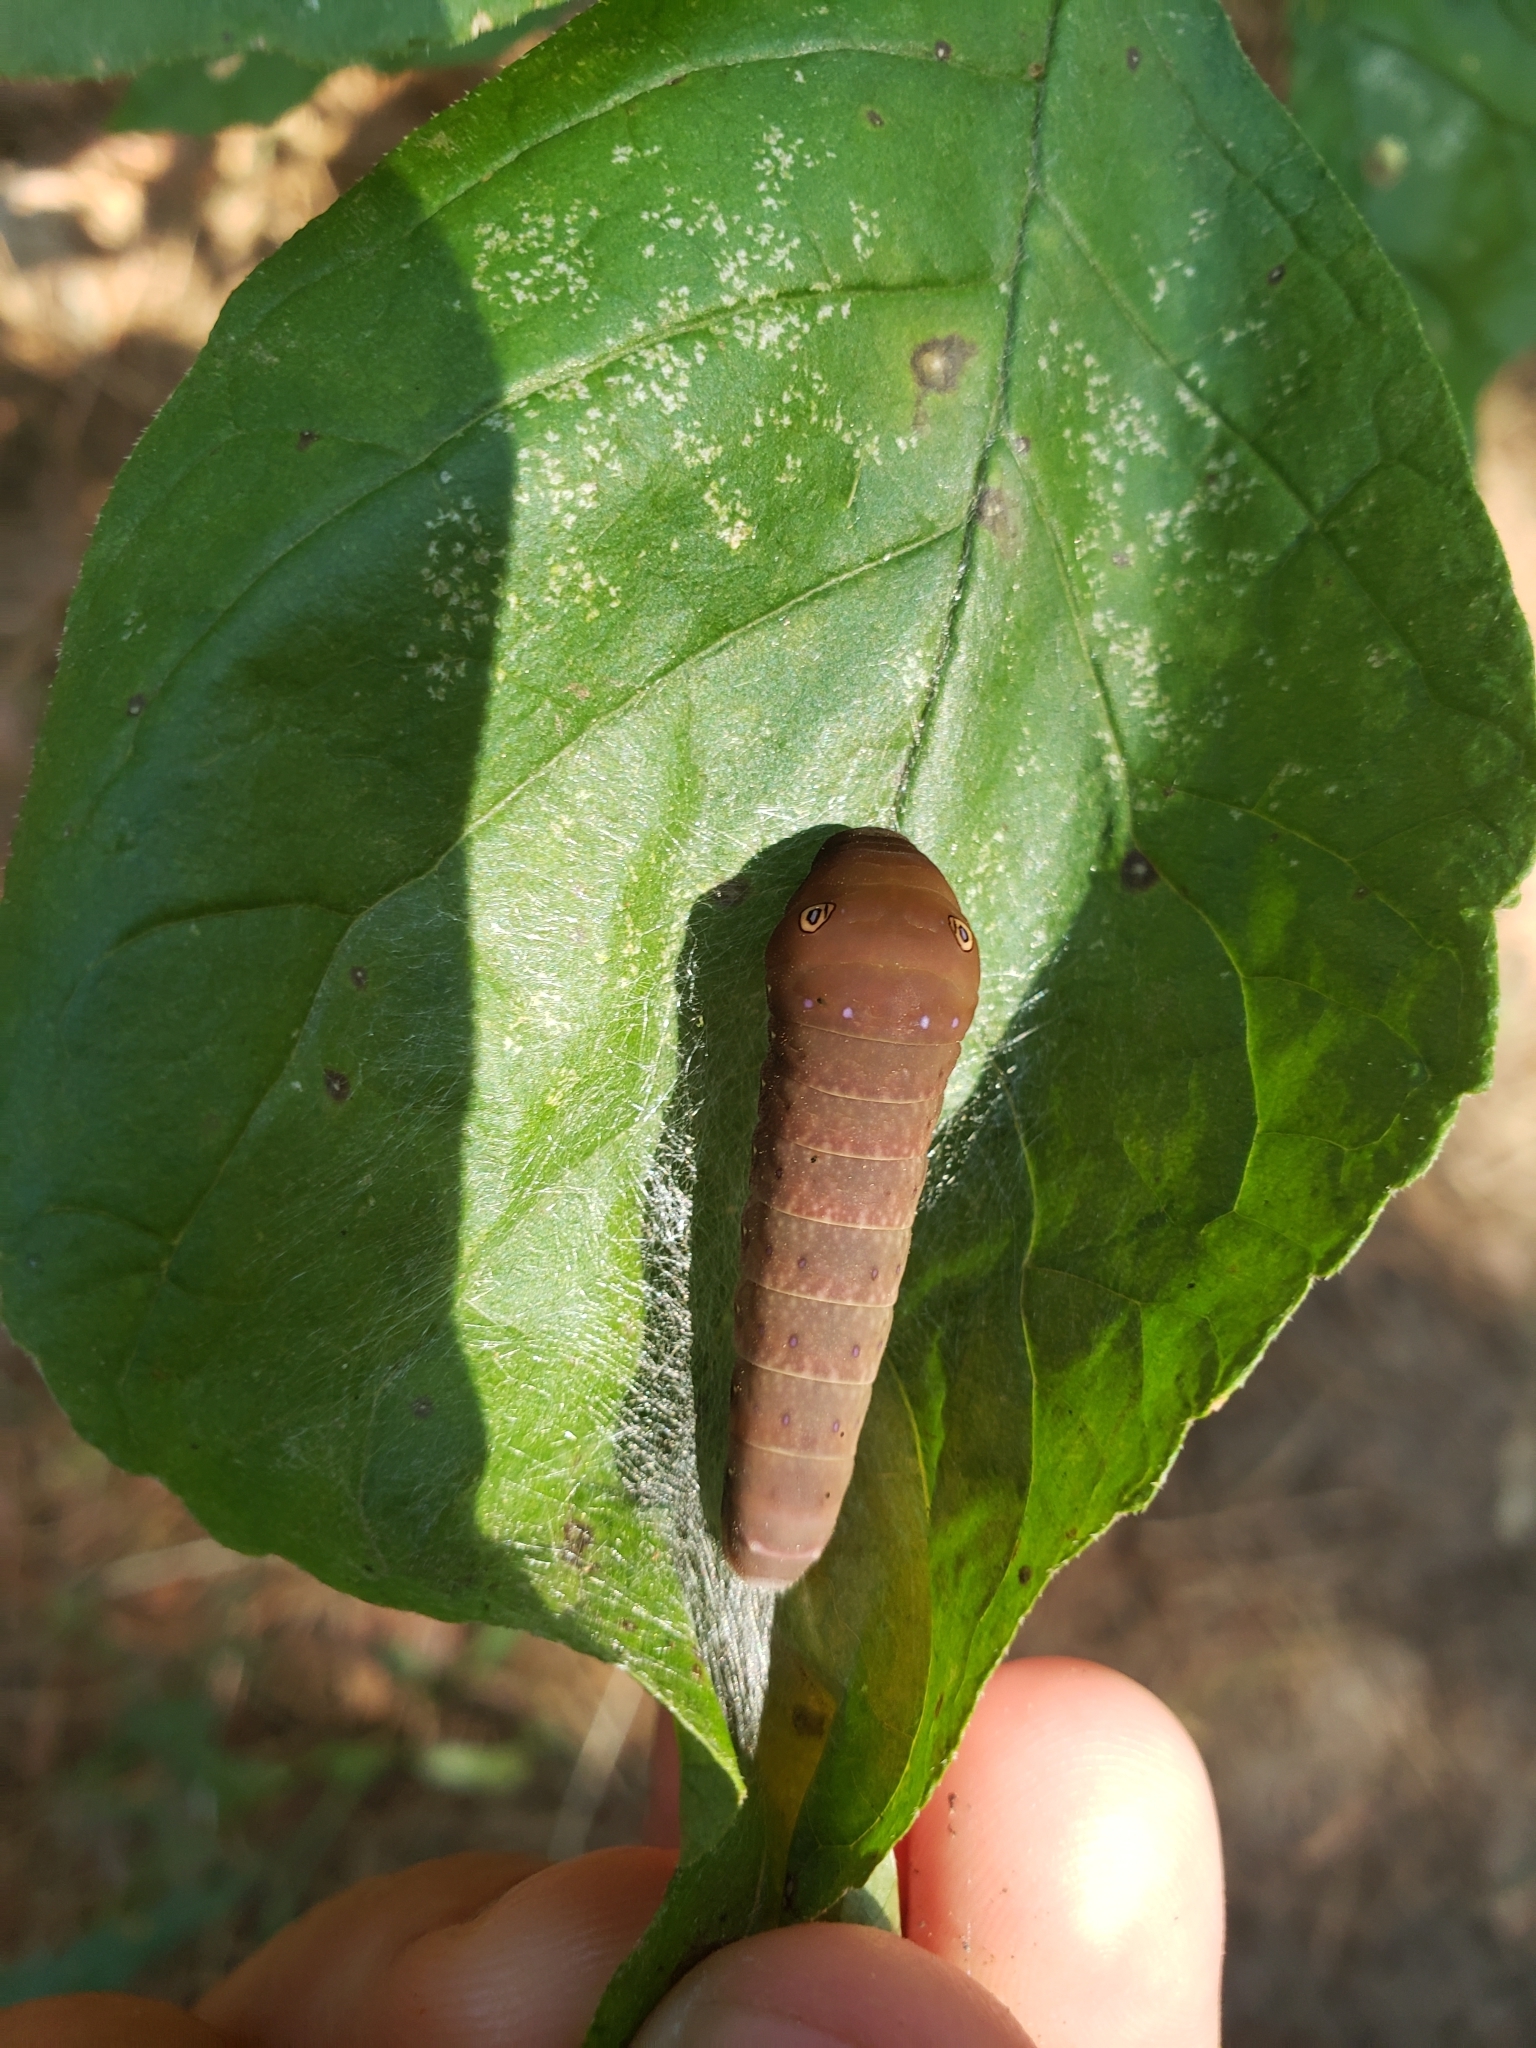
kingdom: Animalia
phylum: Arthropoda
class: Insecta
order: Lepidoptera
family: Papilionidae
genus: Pterourus
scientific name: Pterourus
